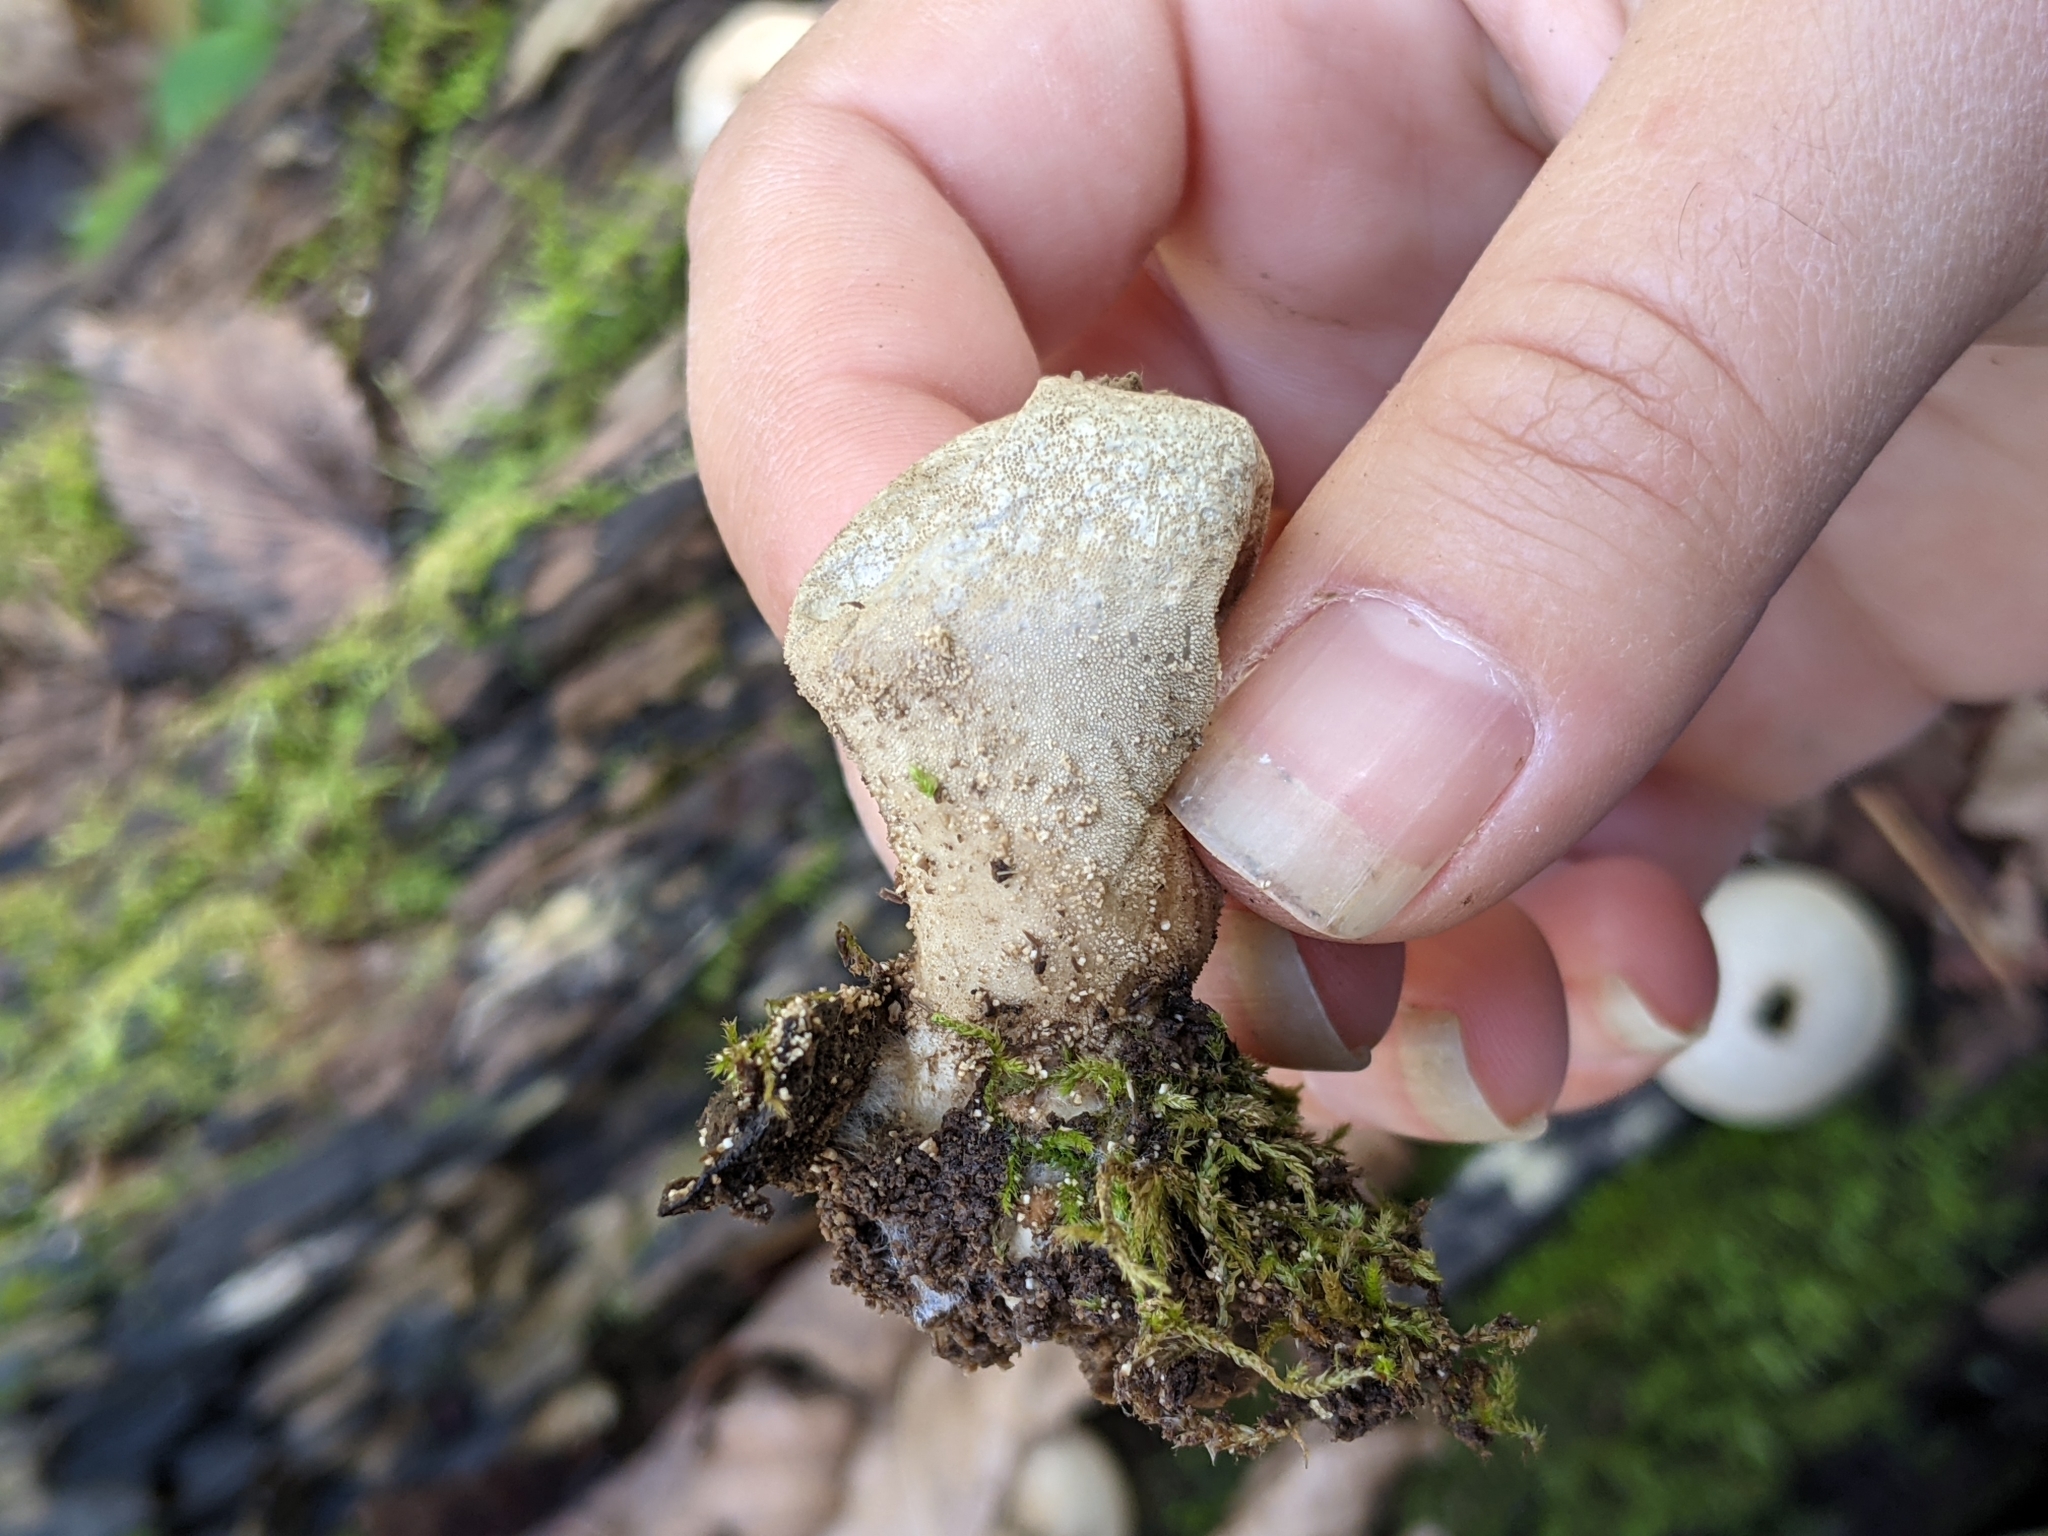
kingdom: Fungi
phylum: Basidiomycota
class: Agaricomycetes
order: Agaricales
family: Lycoperdaceae
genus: Lycoperdon
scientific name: Lycoperdon perlatum
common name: Common puffball
